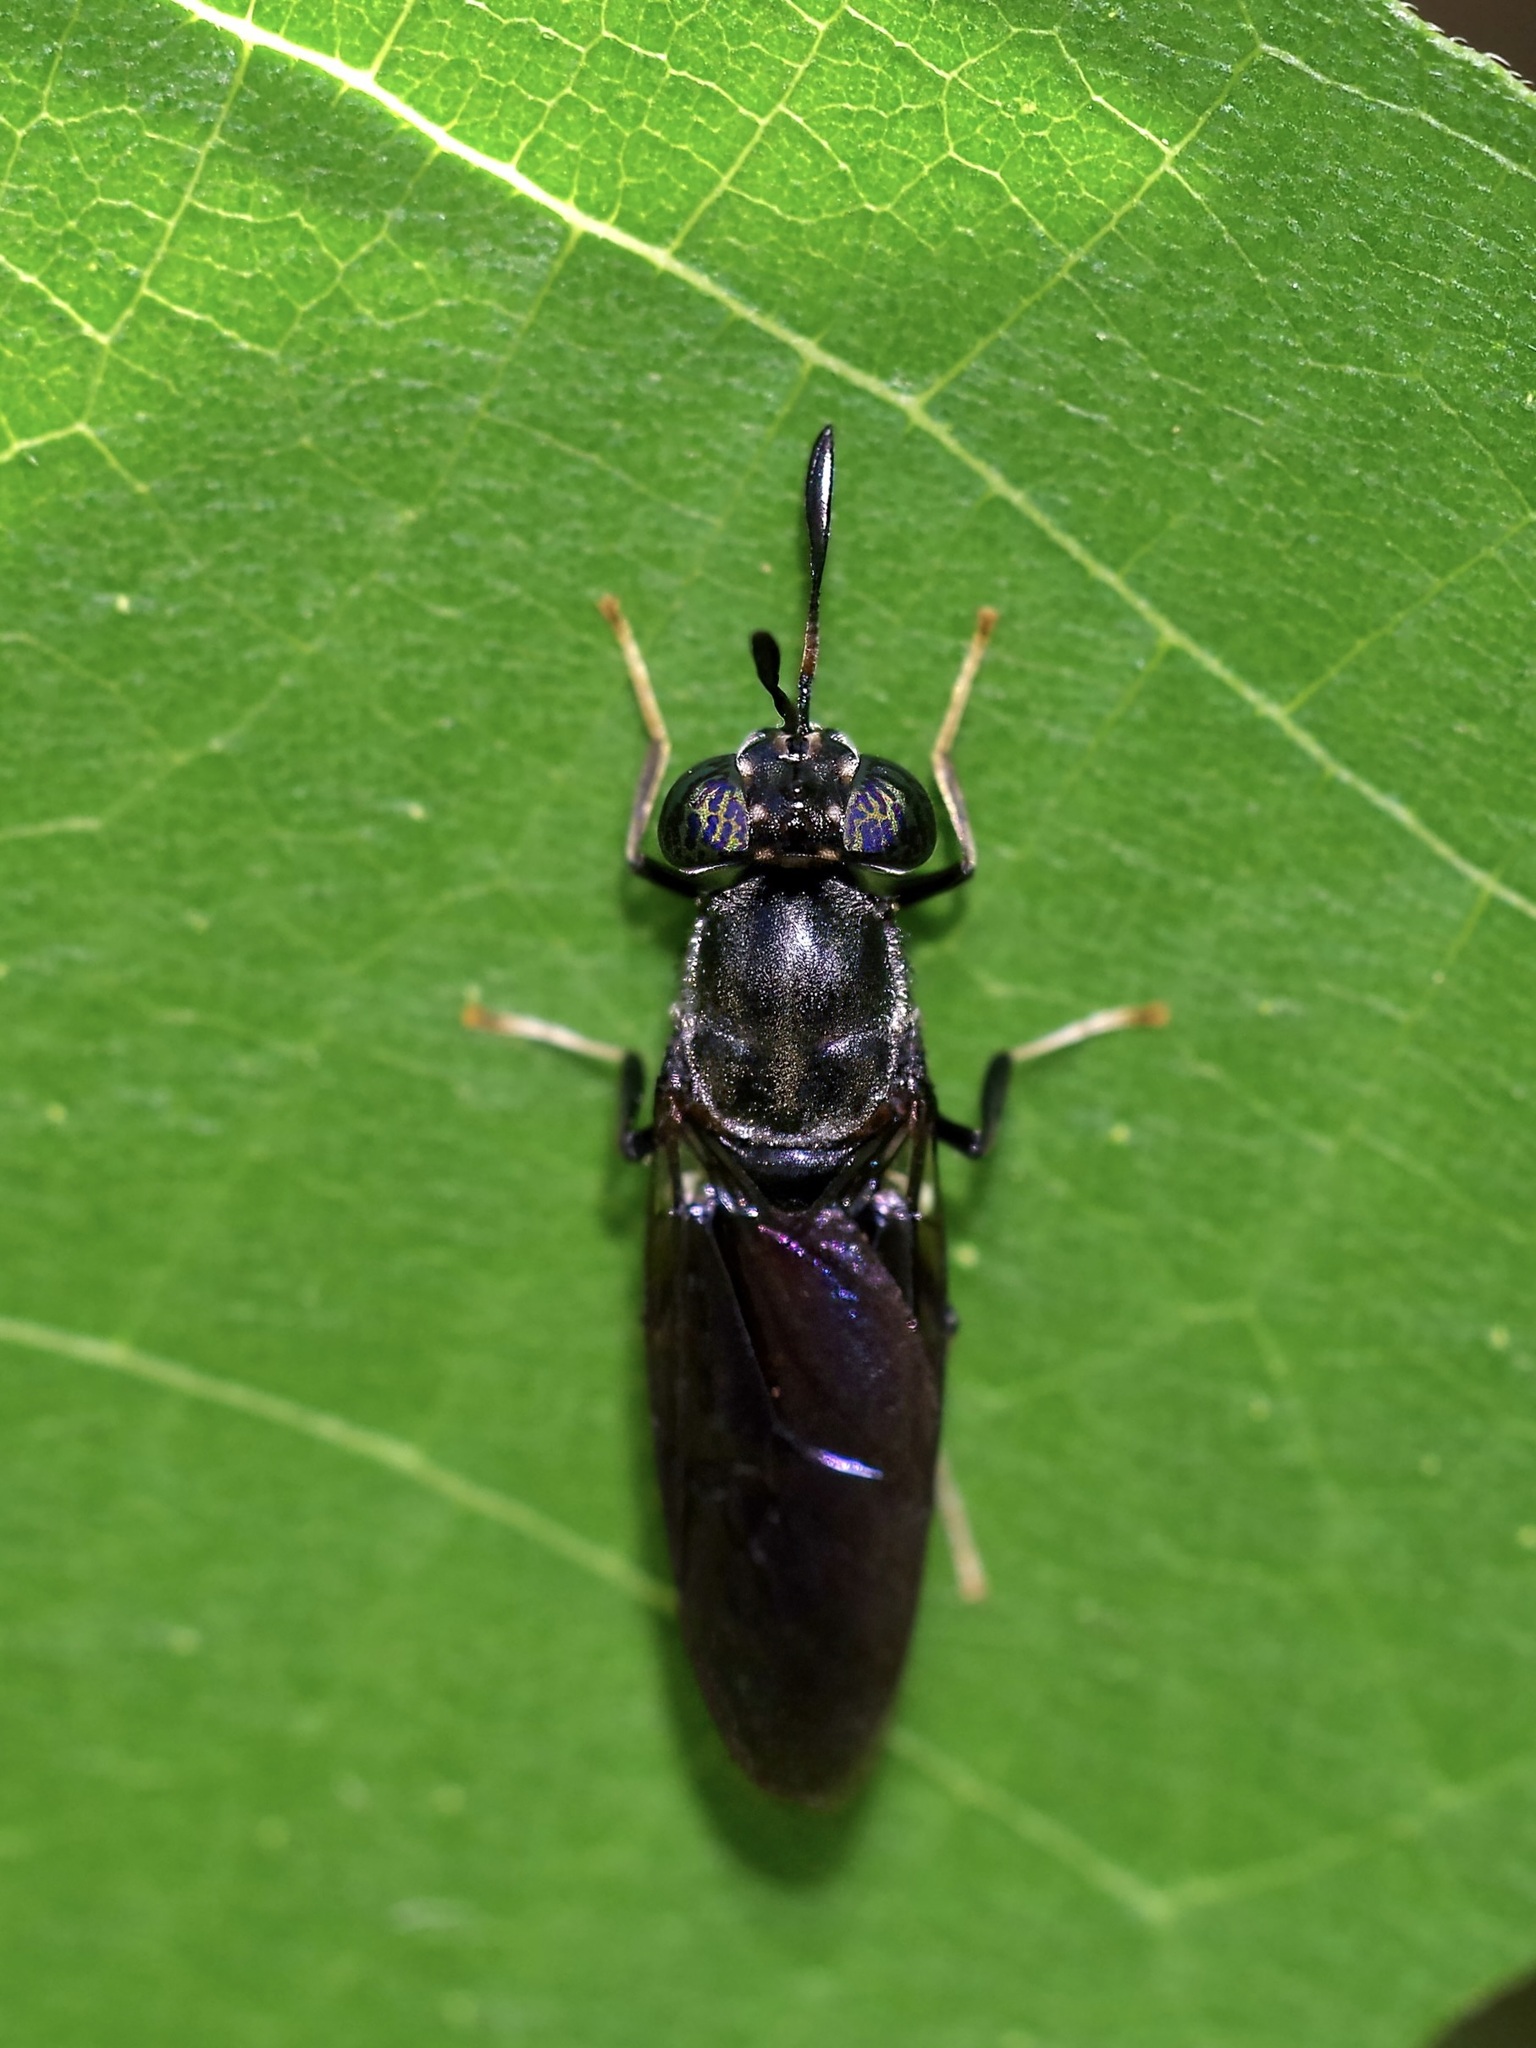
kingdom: Animalia
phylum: Arthropoda
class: Insecta
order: Diptera
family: Stratiomyidae
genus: Hermetia
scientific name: Hermetia illucens
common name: Black soldier fly
